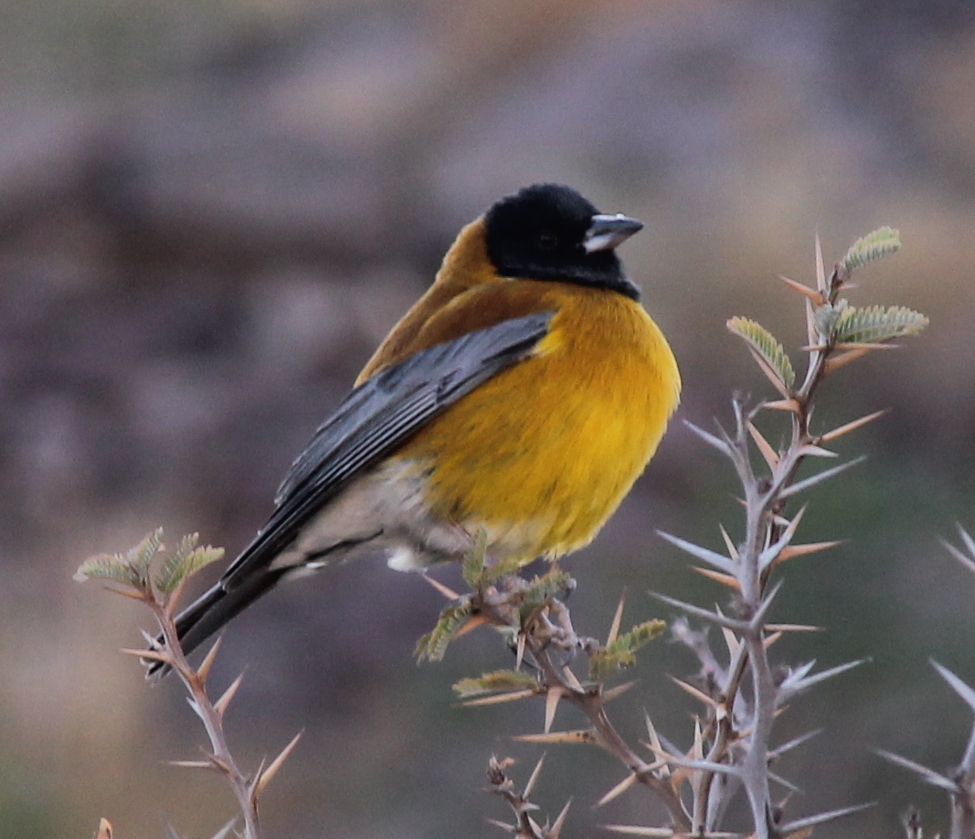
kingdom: Animalia
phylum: Chordata
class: Aves
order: Passeriformes
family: Thraupidae
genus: Phrygilus
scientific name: Phrygilus atriceps
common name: Black-hooded sierra finch
